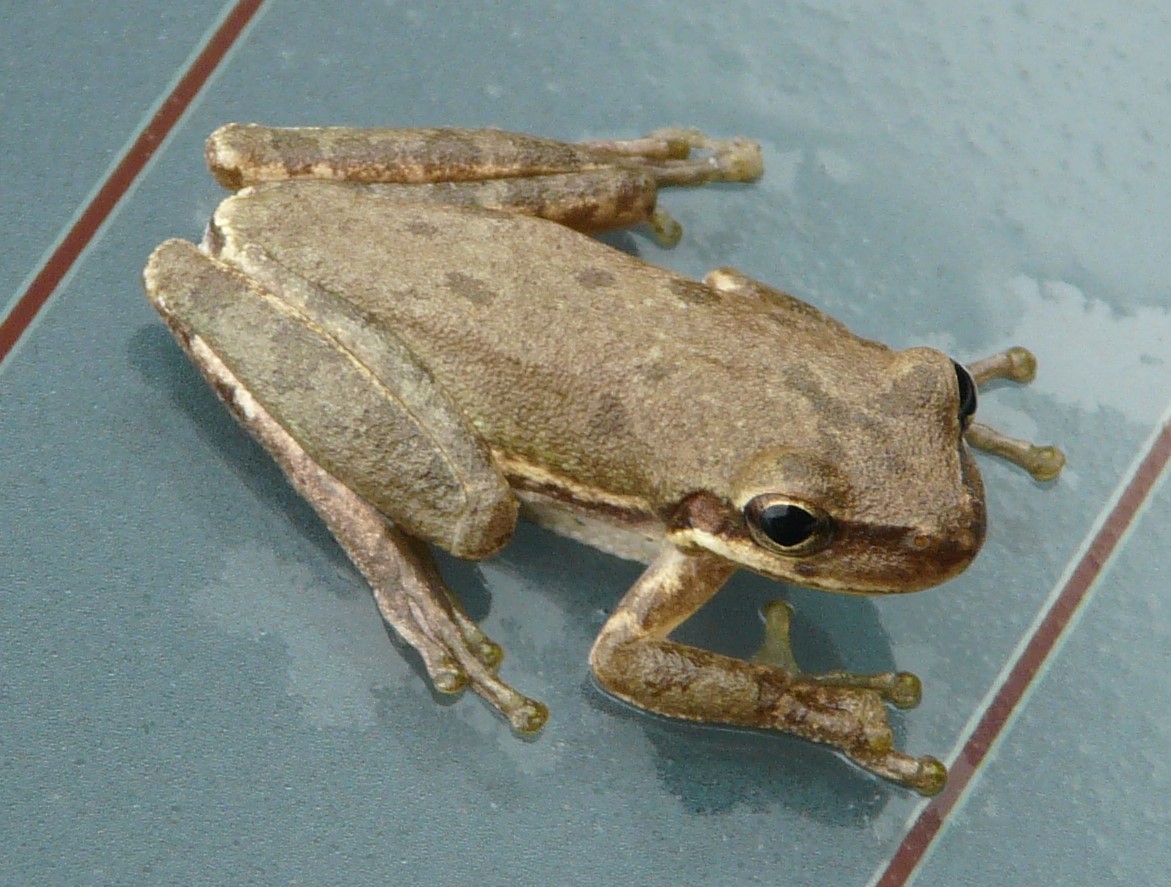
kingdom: Animalia
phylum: Chordata
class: Amphibia
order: Anura
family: Hylidae
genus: Dryophytes
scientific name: Dryophytes squirellus
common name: Squirrel treefrog
